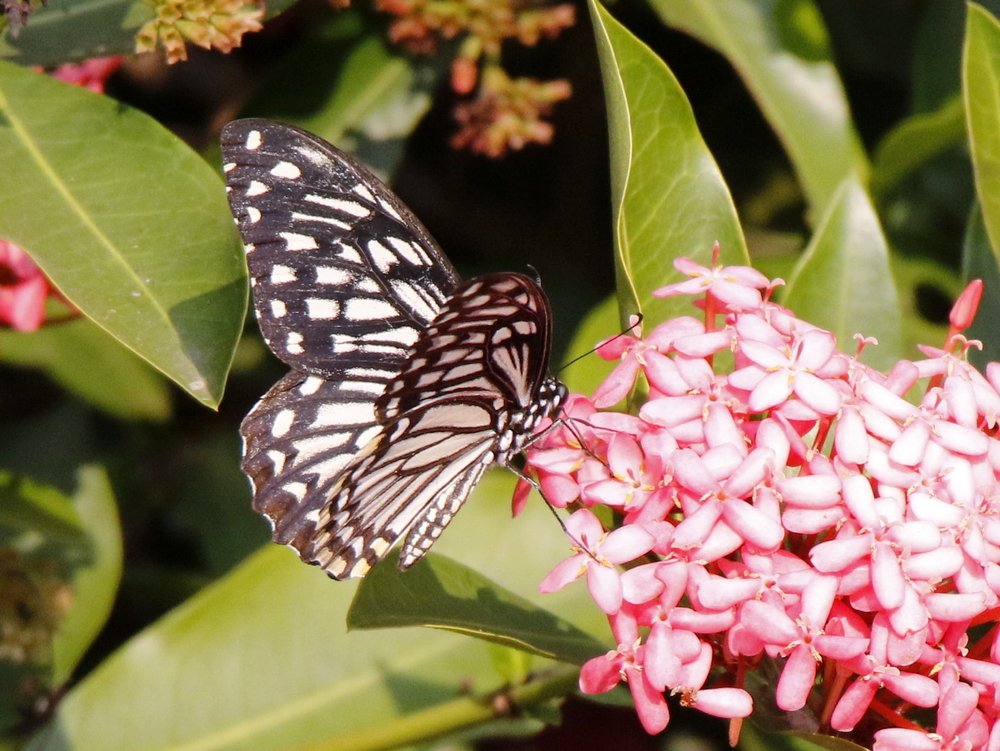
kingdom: Animalia
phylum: Arthropoda
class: Insecta
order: Lepidoptera
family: Papilionidae
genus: Chilasa
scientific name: Chilasa clytia
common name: Common mime
